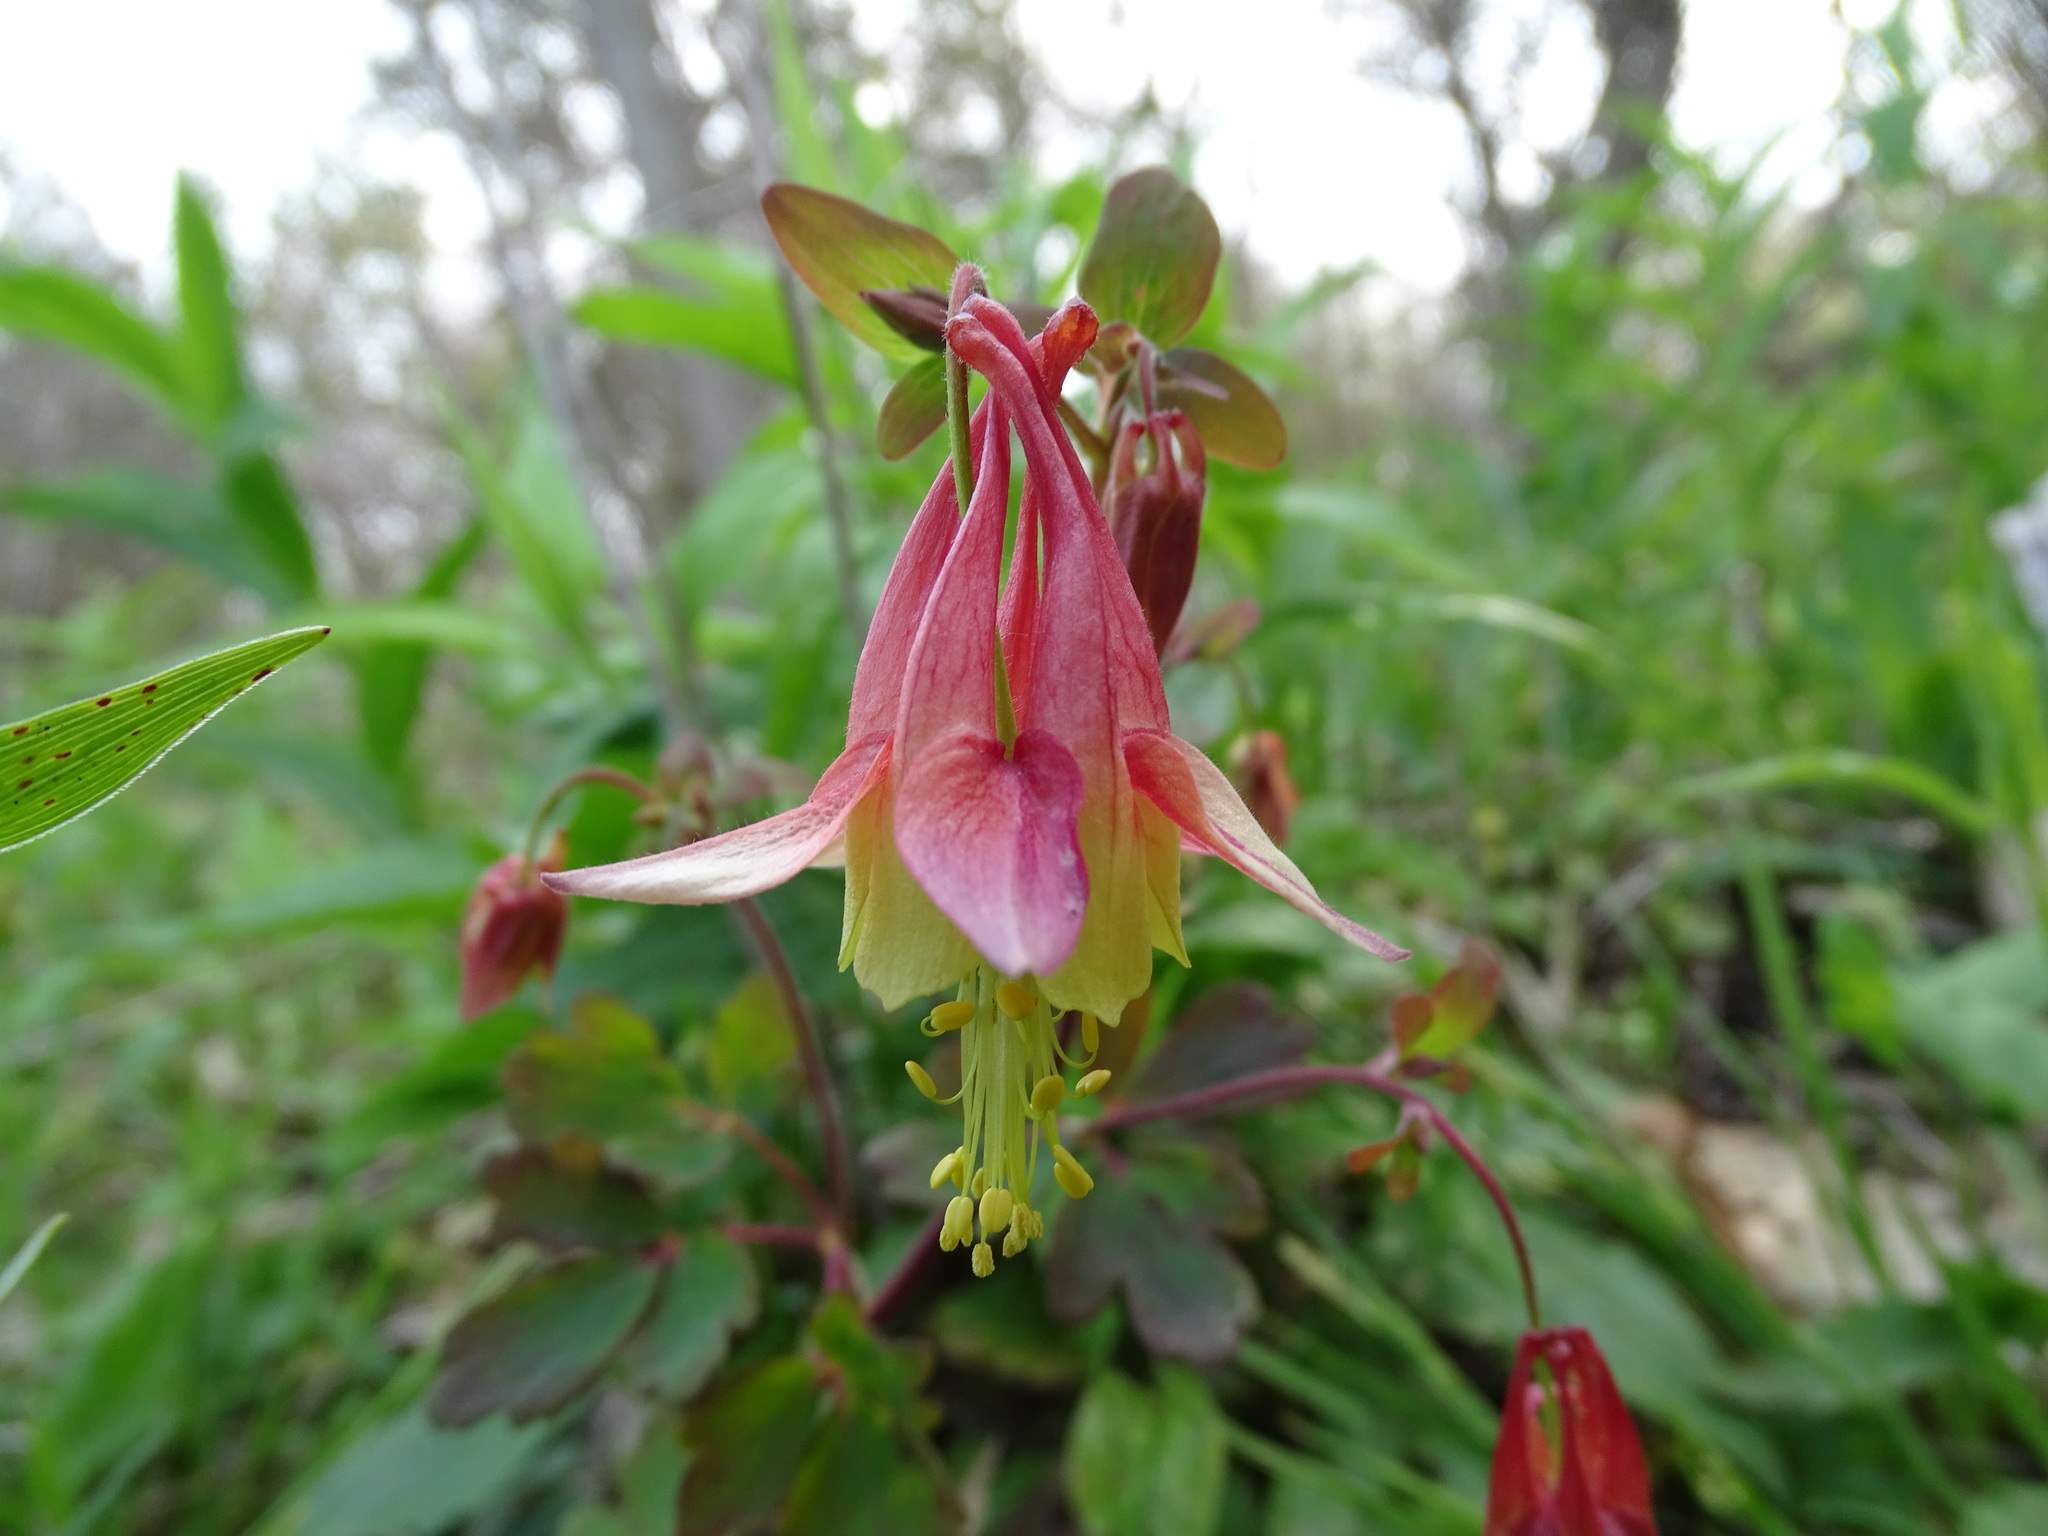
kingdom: Plantae
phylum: Tracheophyta
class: Magnoliopsida
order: Ranunculales
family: Ranunculaceae
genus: Aquilegia
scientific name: Aquilegia canadensis
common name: American columbine
